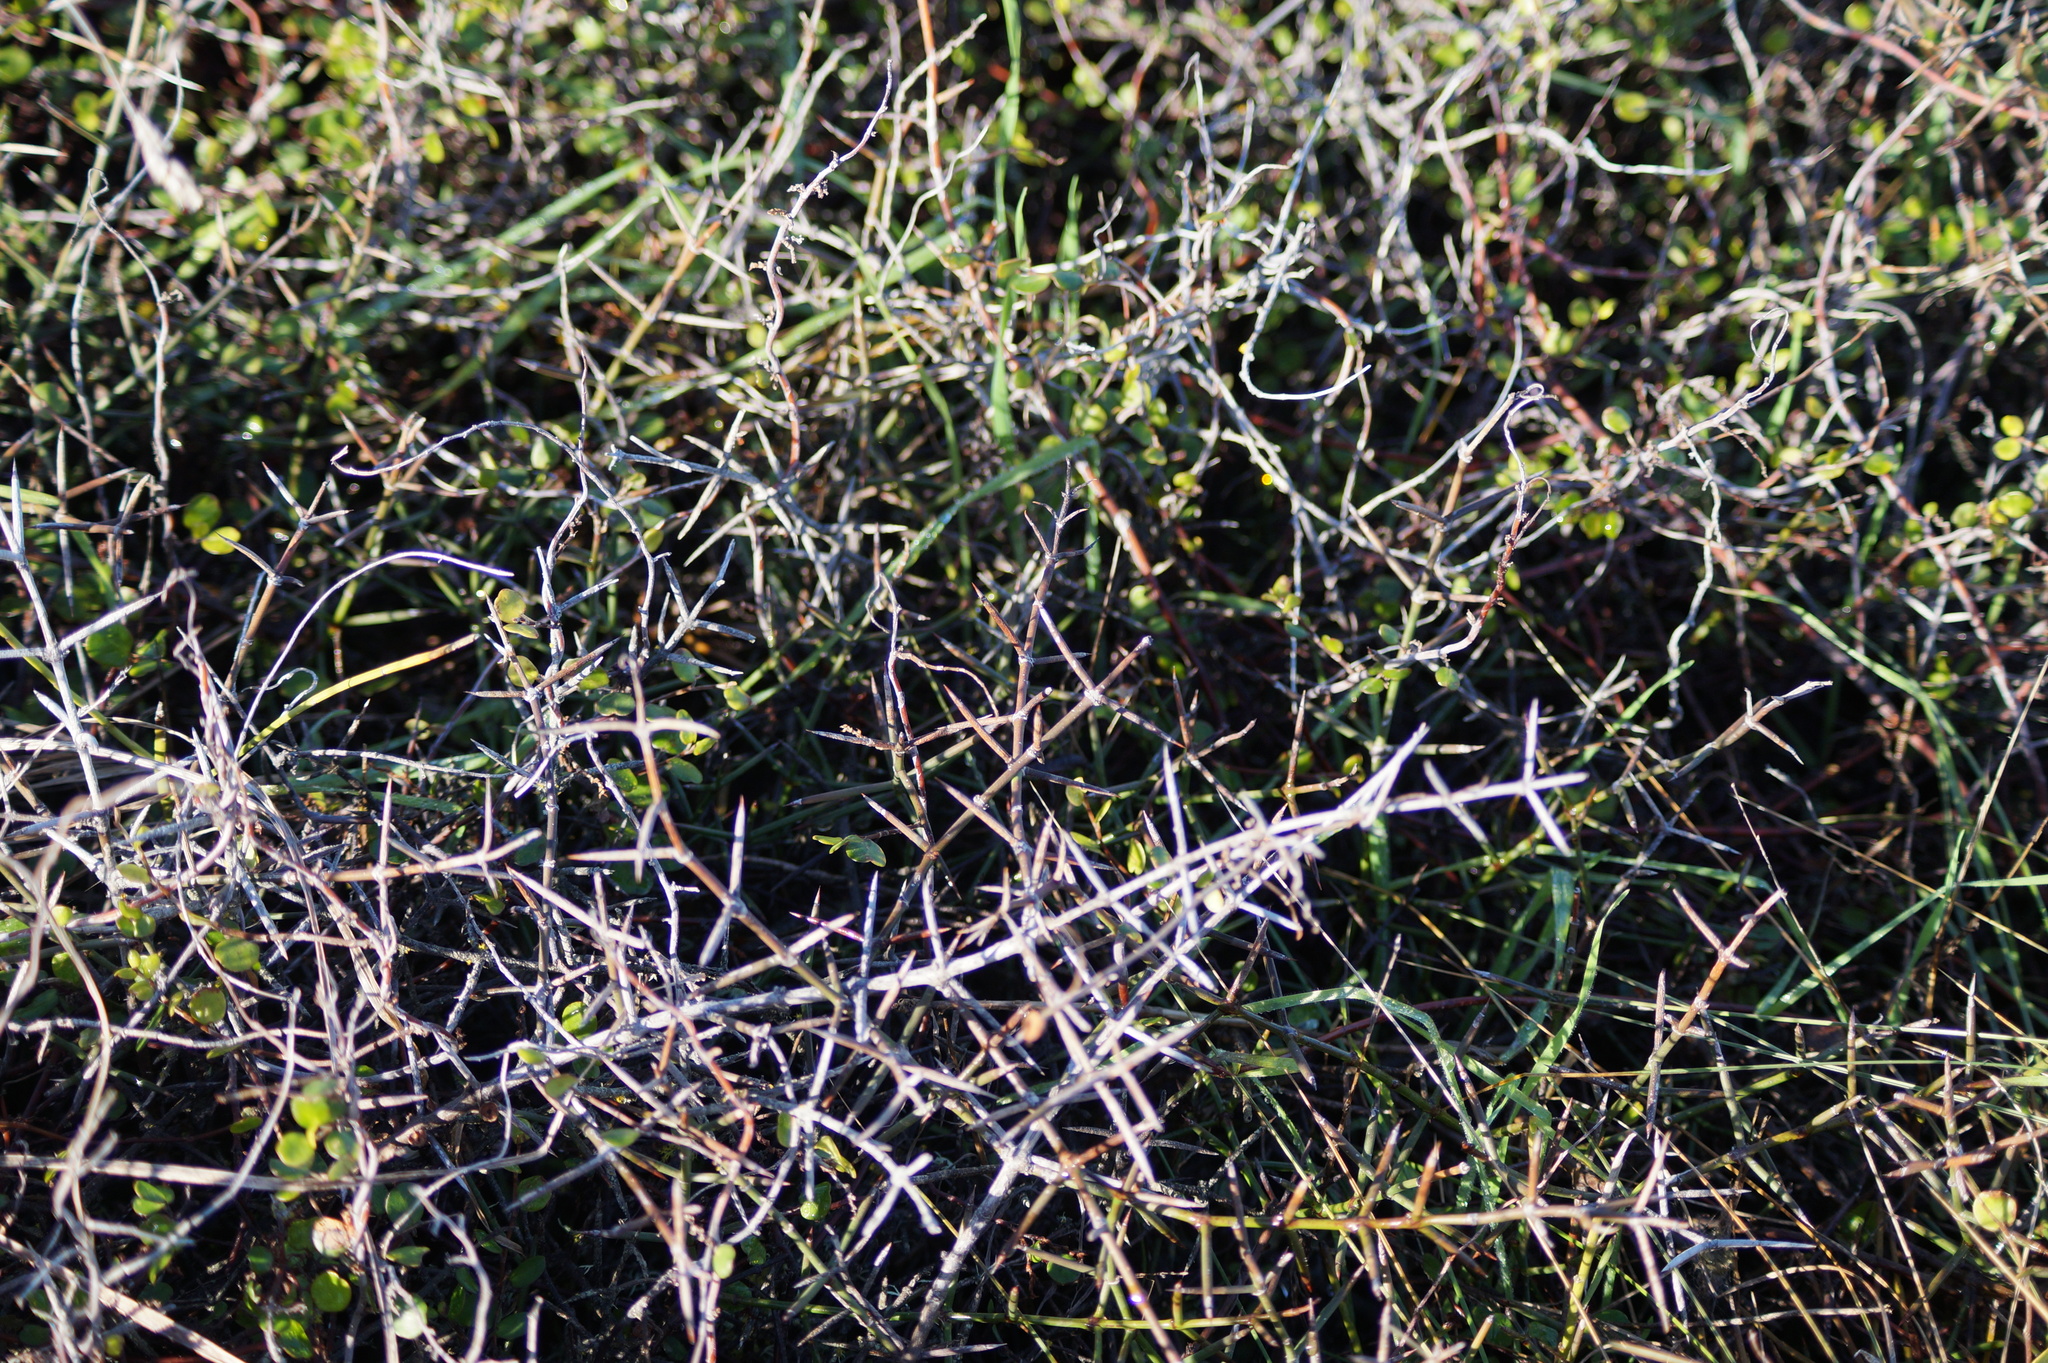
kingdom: Plantae
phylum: Tracheophyta
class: Magnoliopsida
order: Rosales
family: Rhamnaceae
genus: Discaria
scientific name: Discaria toumatou
